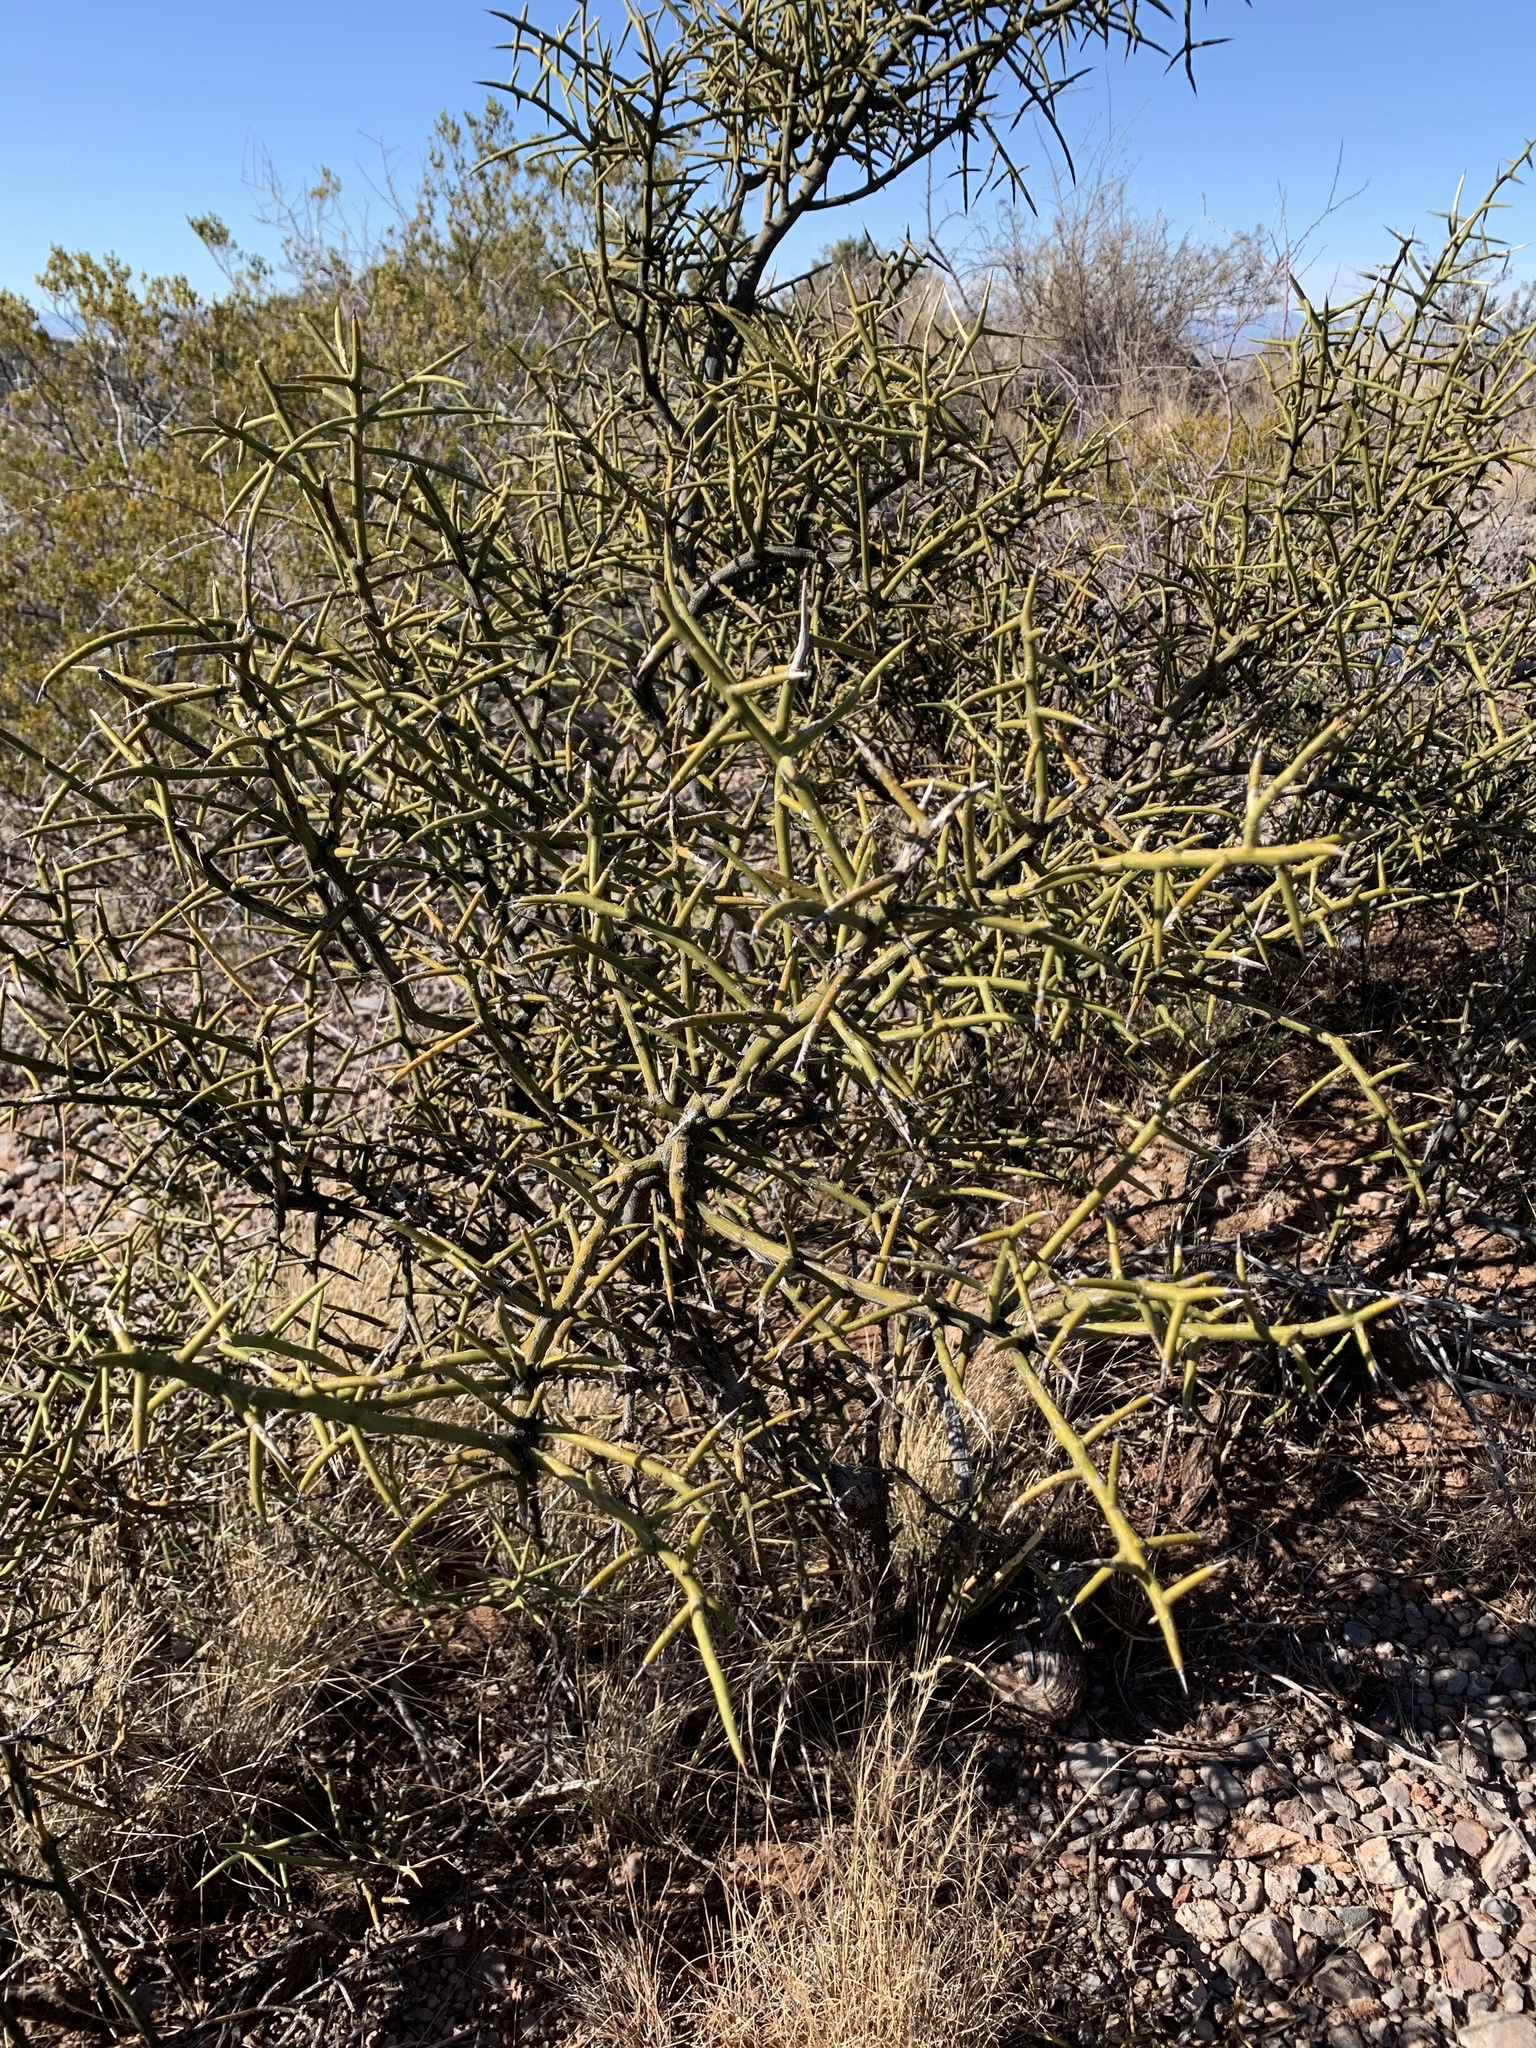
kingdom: Plantae
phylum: Tracheophyta
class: Magnoliopsida
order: Brassicales
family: Koeberliniaceae
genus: Koeberlinia
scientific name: Koeberlinia spinosa
